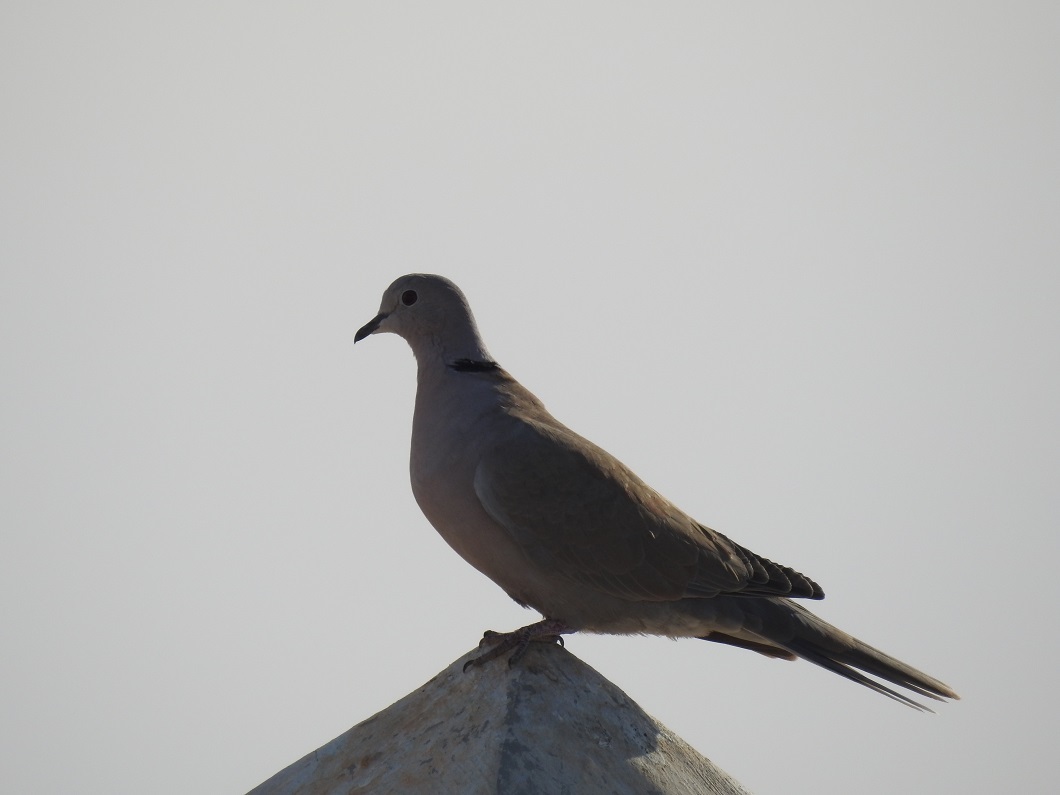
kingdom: Animalia
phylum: Chordata
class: Aves
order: Columbiformes
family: Columbidae
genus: Streptopelia
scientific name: Streptopelia decaocto
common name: Eurasian collared dove
